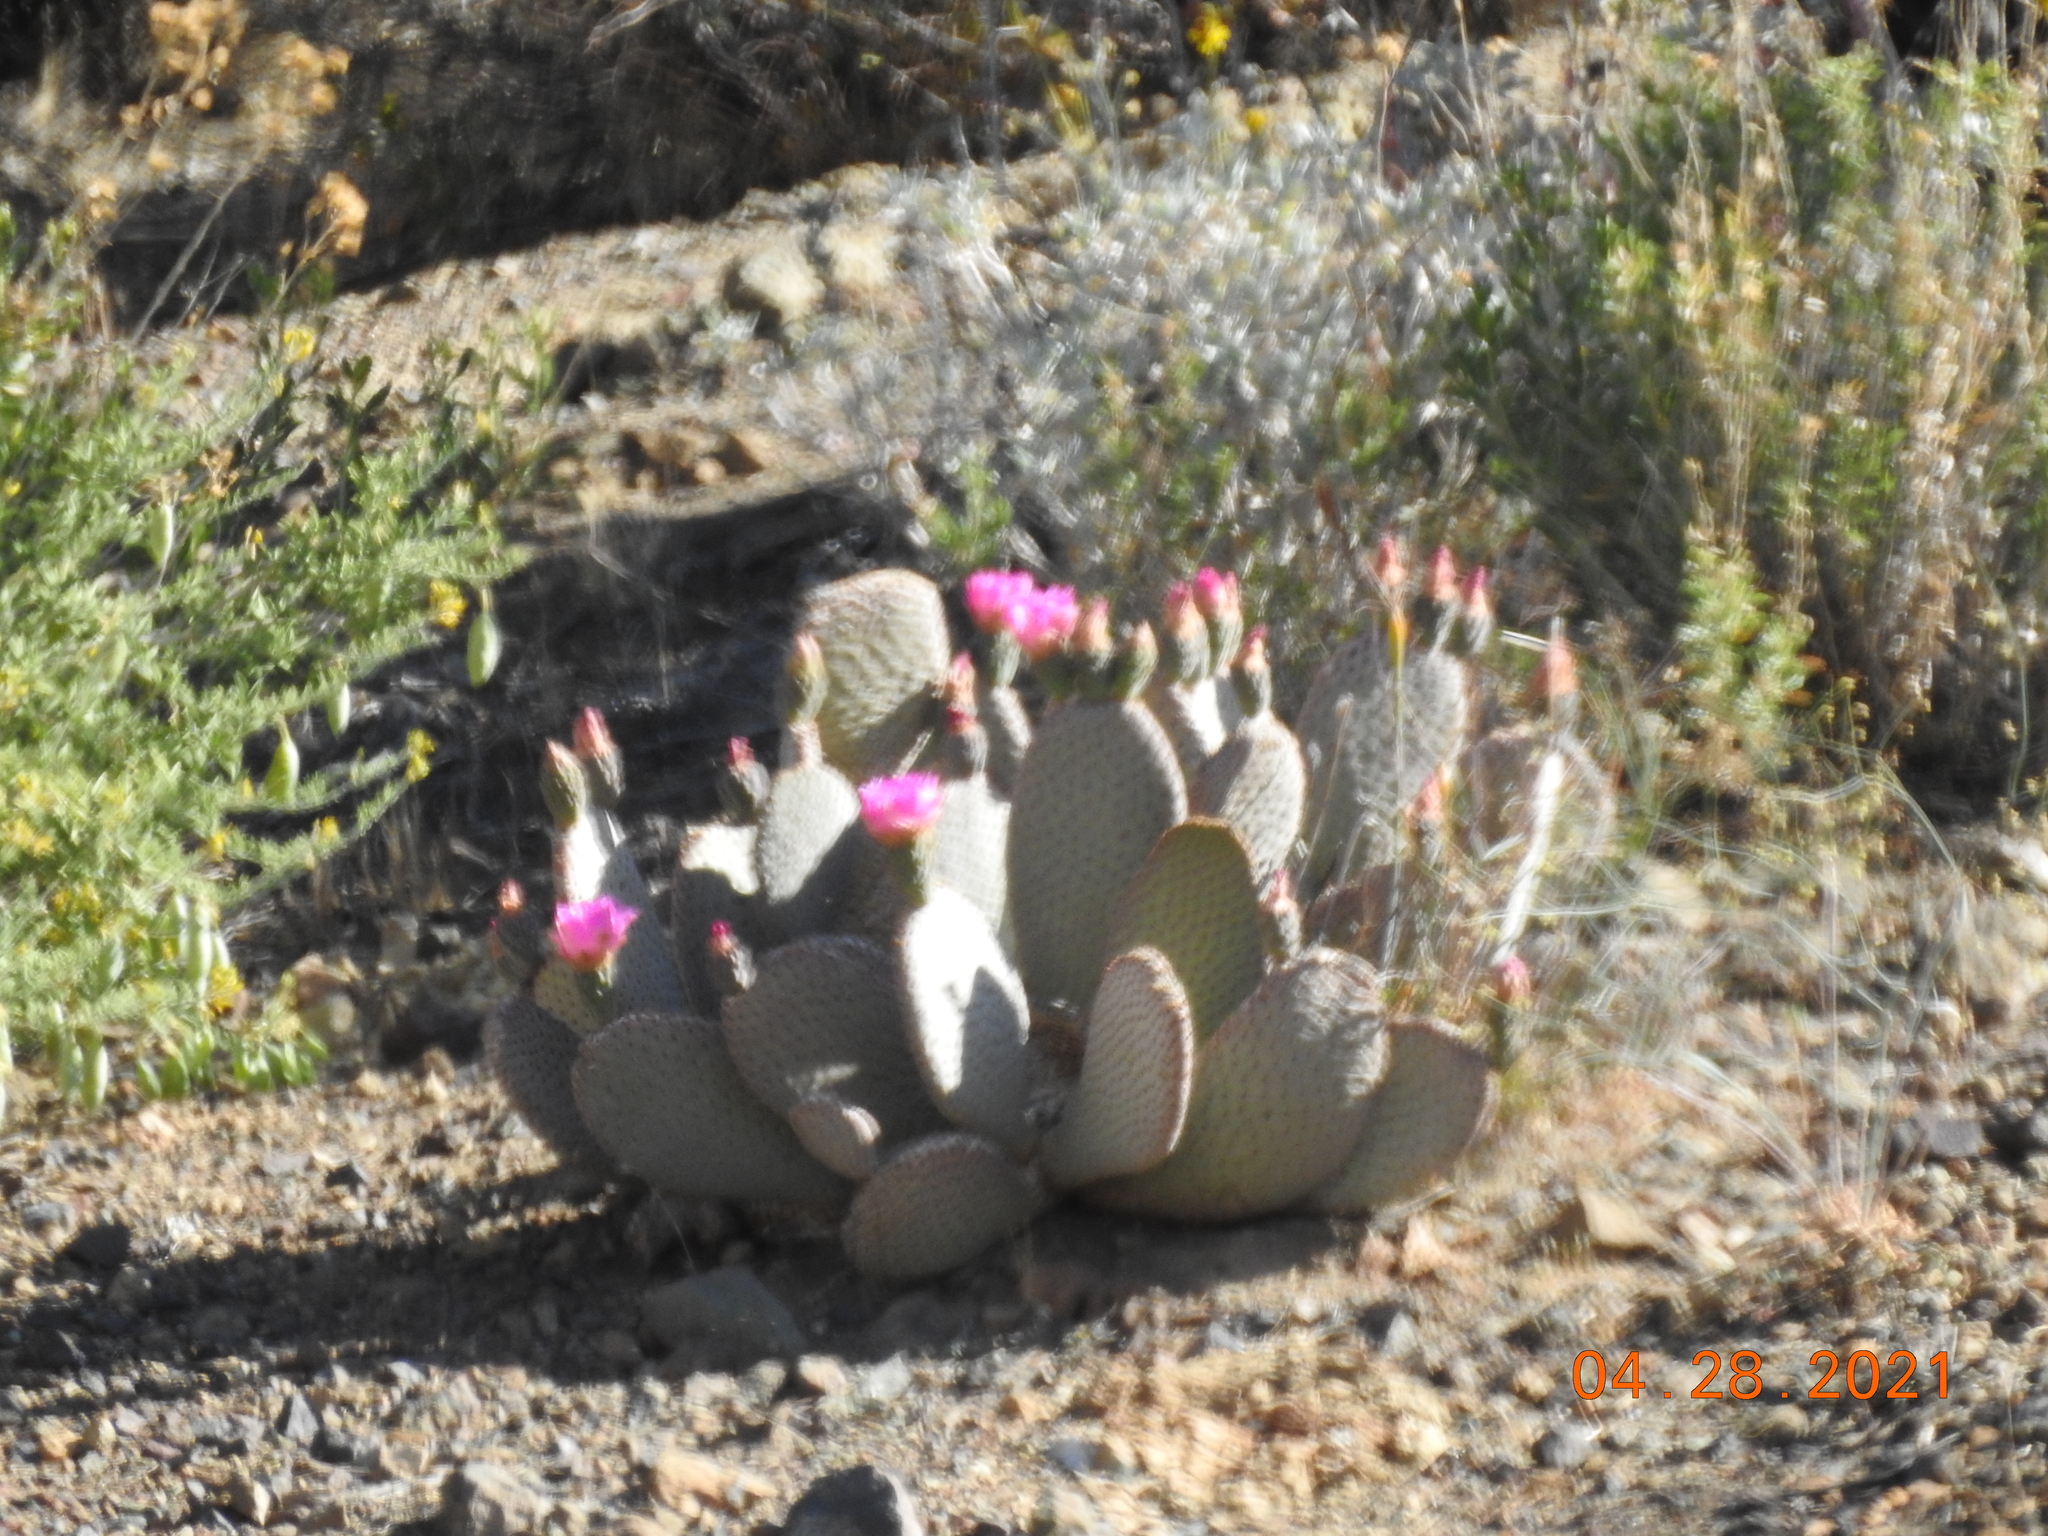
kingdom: Plantae
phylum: Tracheophyta
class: Magnoliopsida
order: Caryophyllales
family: Cactaceae
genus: Opuntia
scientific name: Opuntia basilaris
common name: Beavertail prickly-pear
